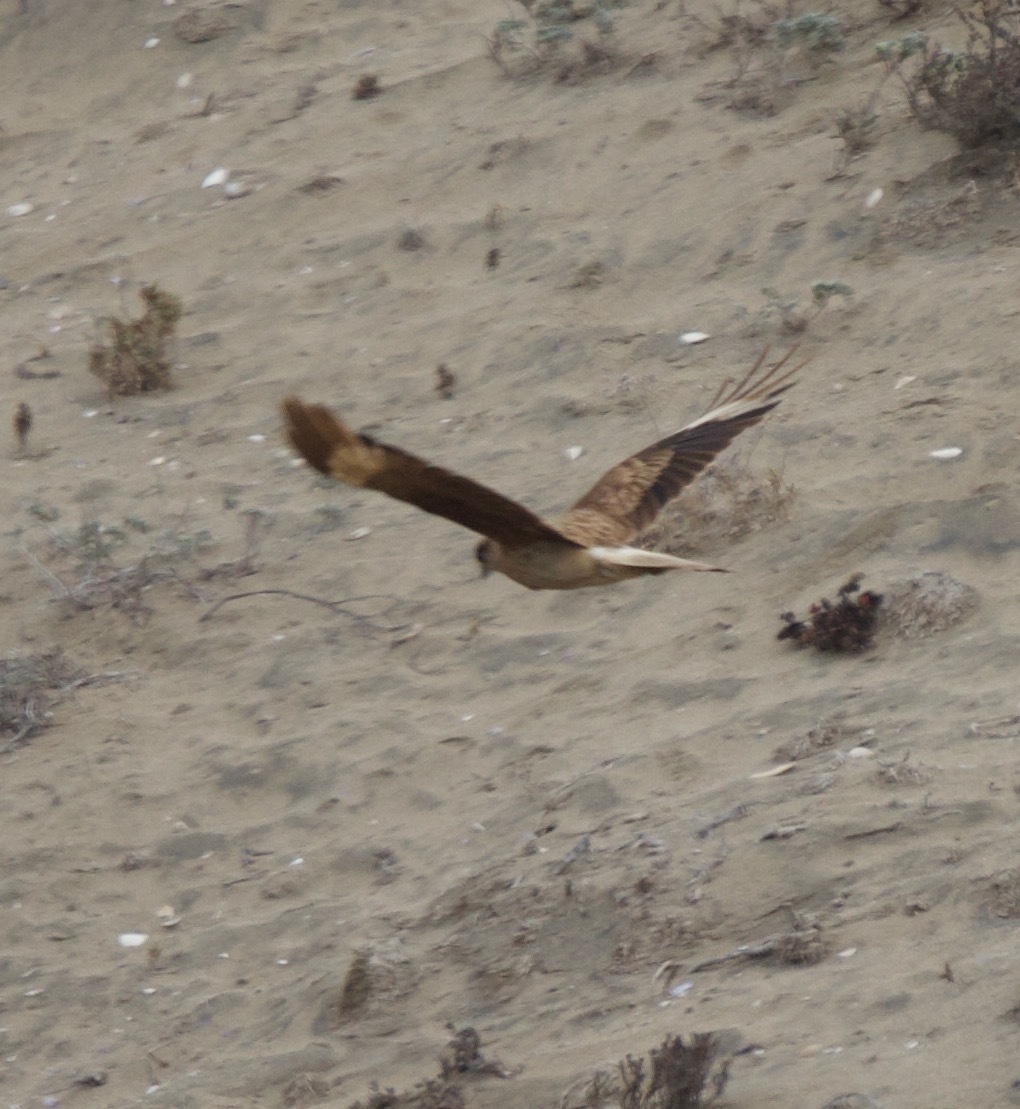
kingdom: Animalia
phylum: Chordata
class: Aves
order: Falconiformes
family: Falconidae
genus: Daptrius
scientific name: Daptrius
